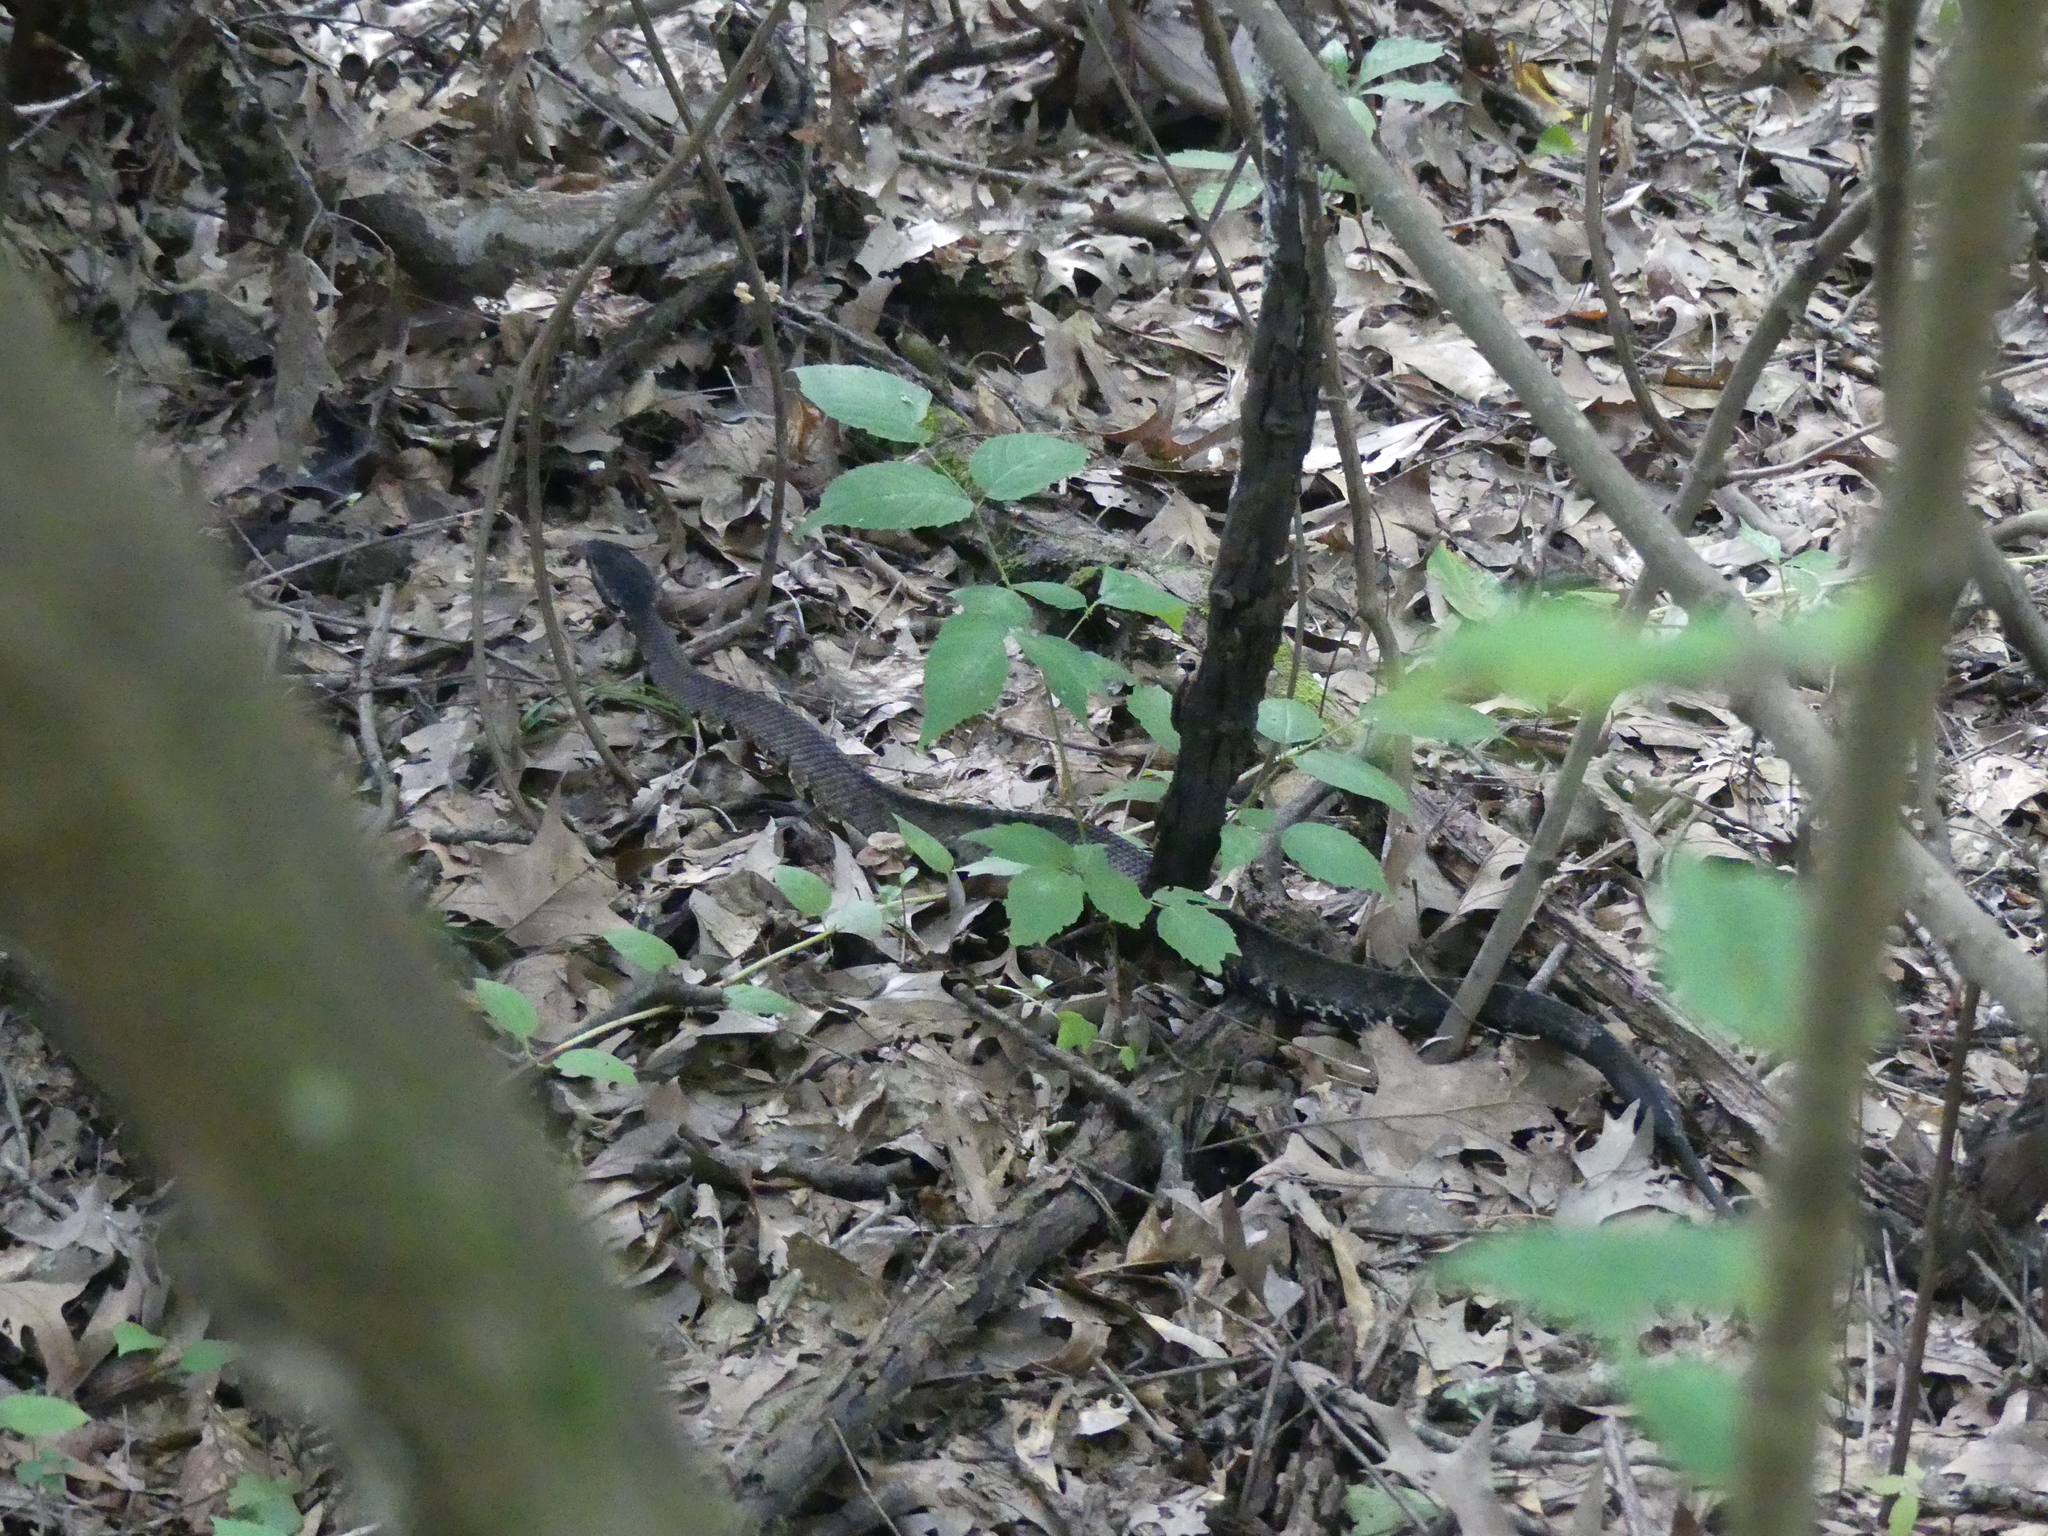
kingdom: Animalia
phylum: Chordata
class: Squamata
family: Viperidae
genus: Agkistrodon
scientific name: Agkistrodon piscivorus
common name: Cottonmouth
